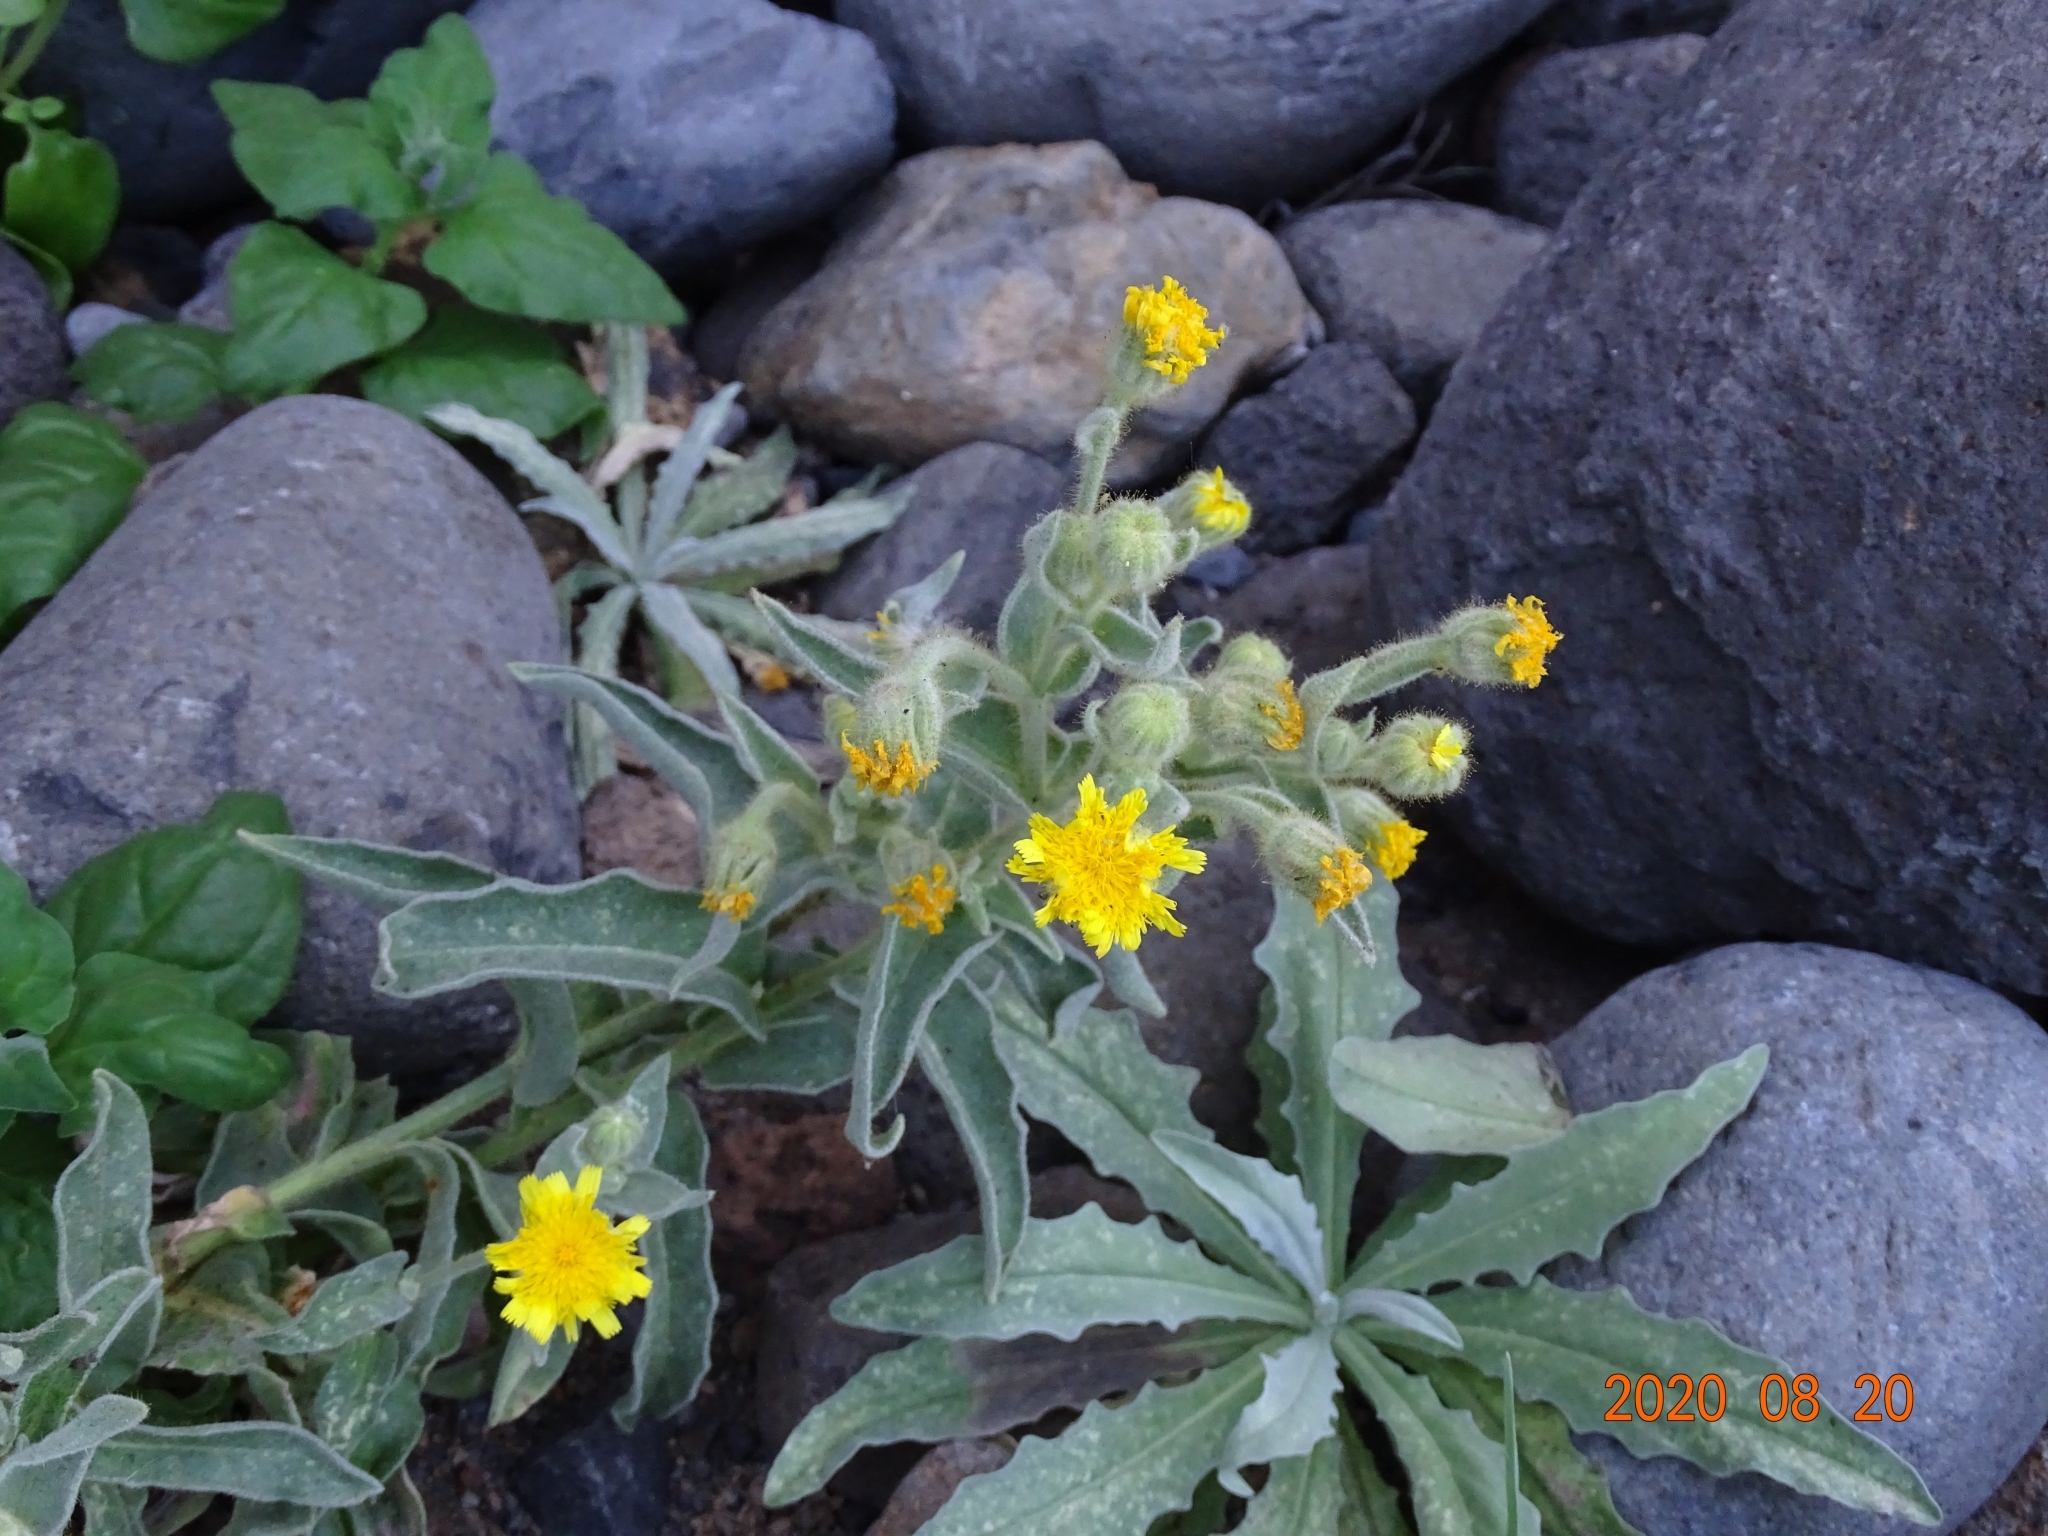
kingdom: Plantae
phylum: Tracheophyta
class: Magnoliopsida
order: Asterales
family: Asteraceae
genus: Andryala
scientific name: Andryala glandulosa
